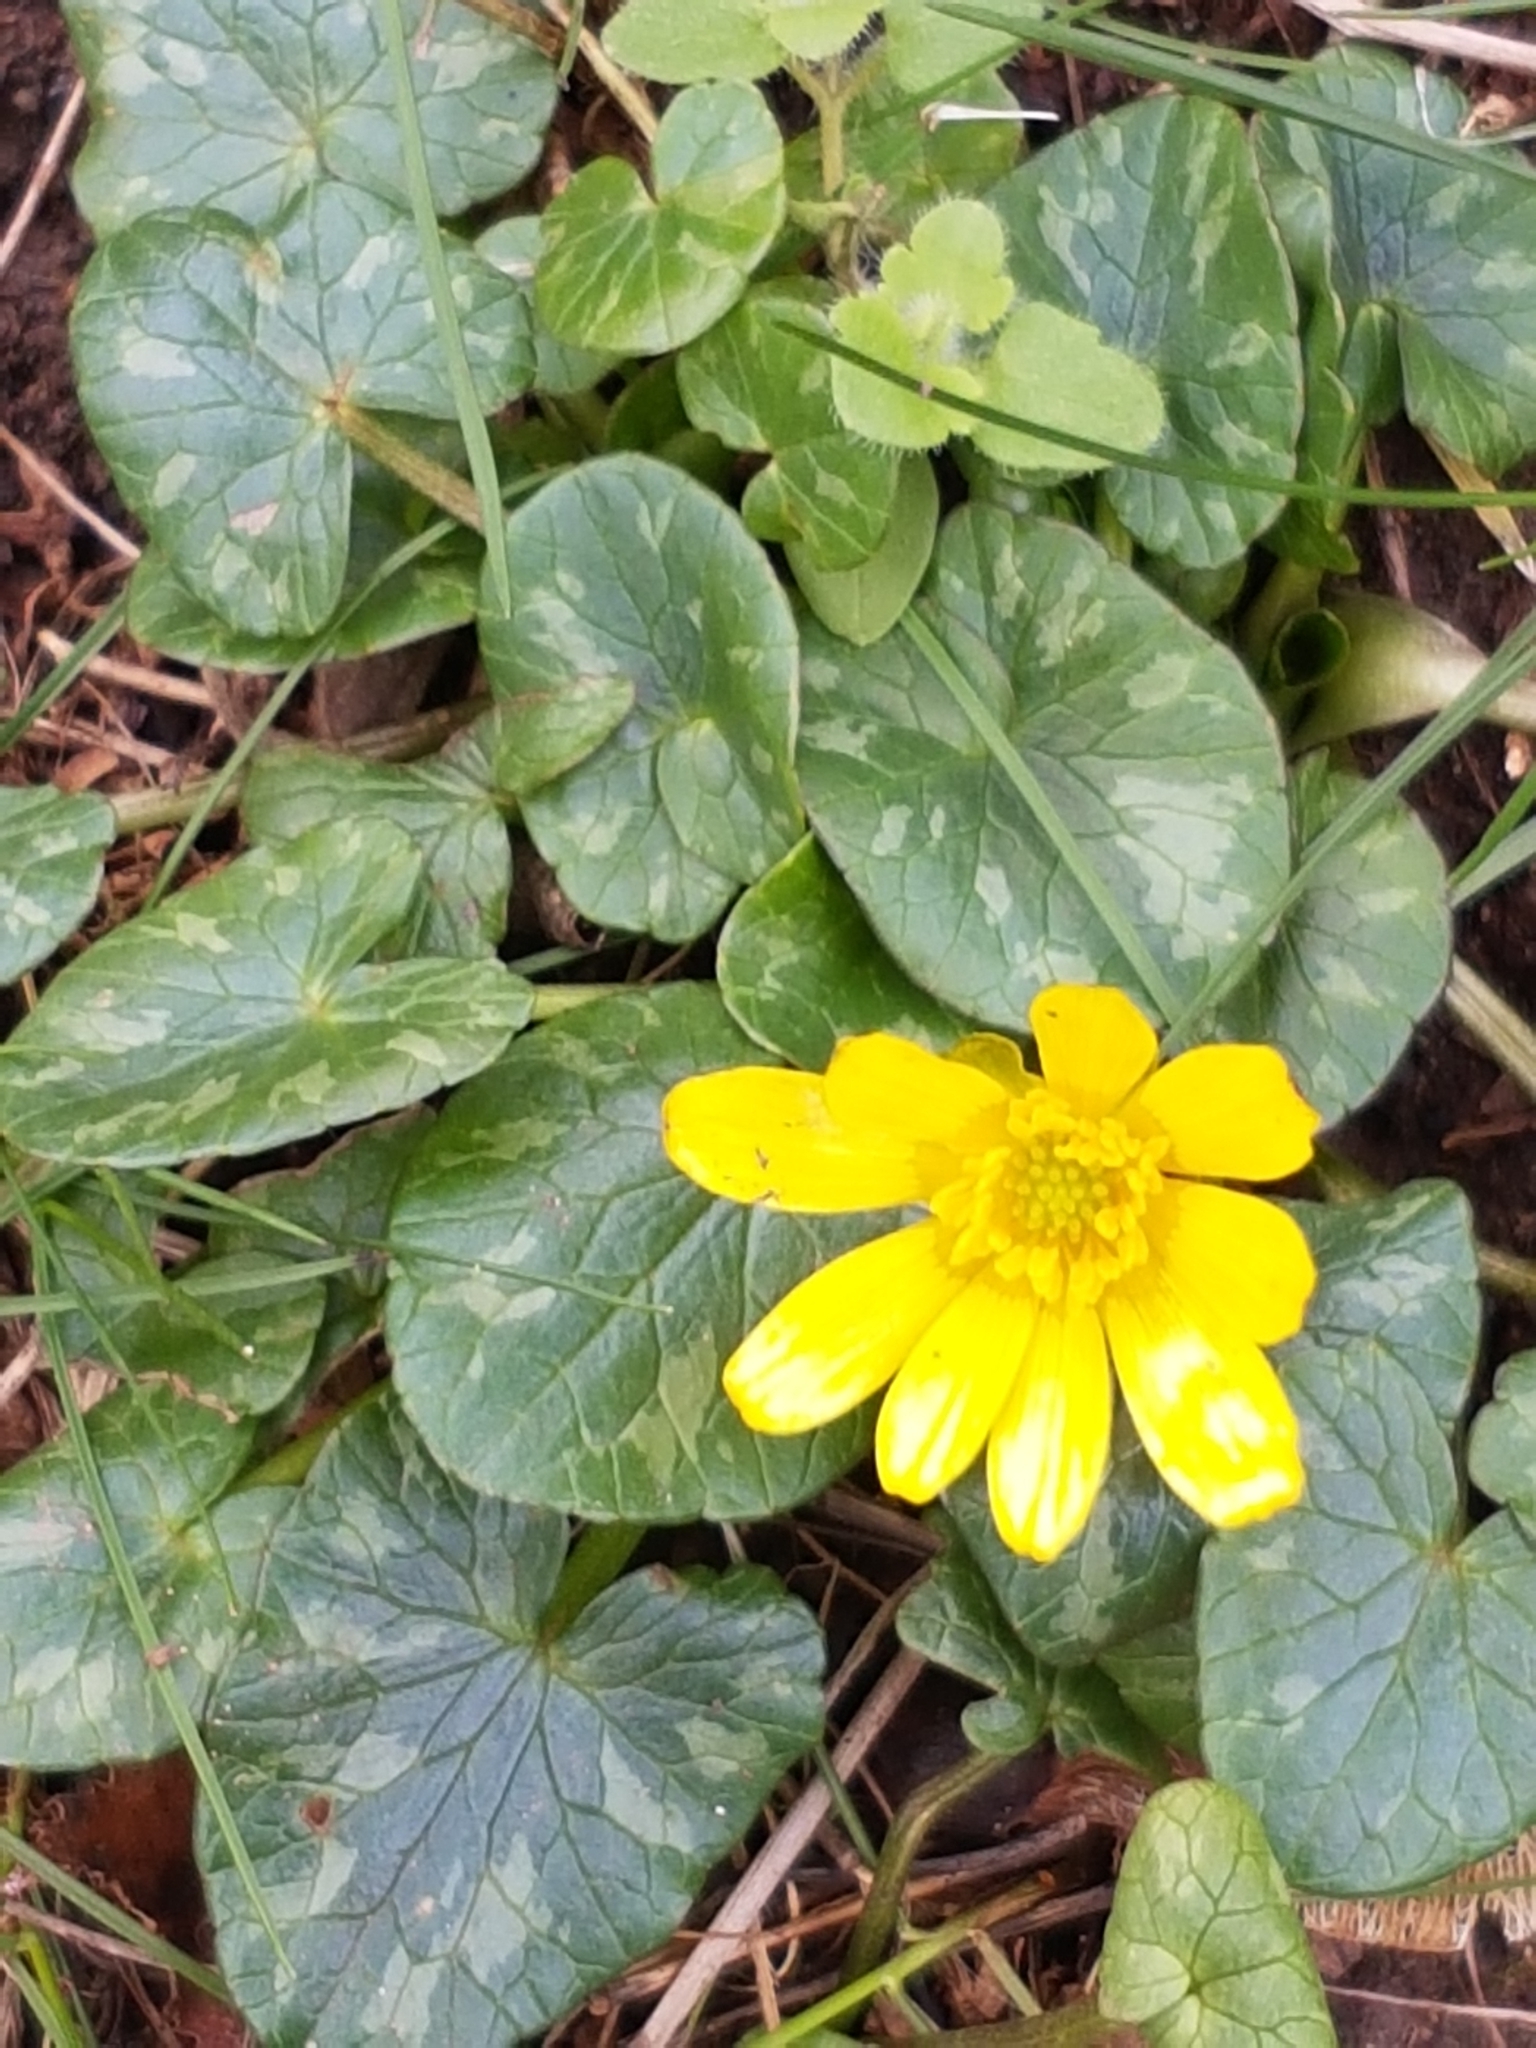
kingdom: Plantae
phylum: Tracheophyta
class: Magnoliopsida
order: Ranunculales
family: Ranunculaceae
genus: Ficaria
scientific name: Ficaria verna
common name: Lesser celandine
